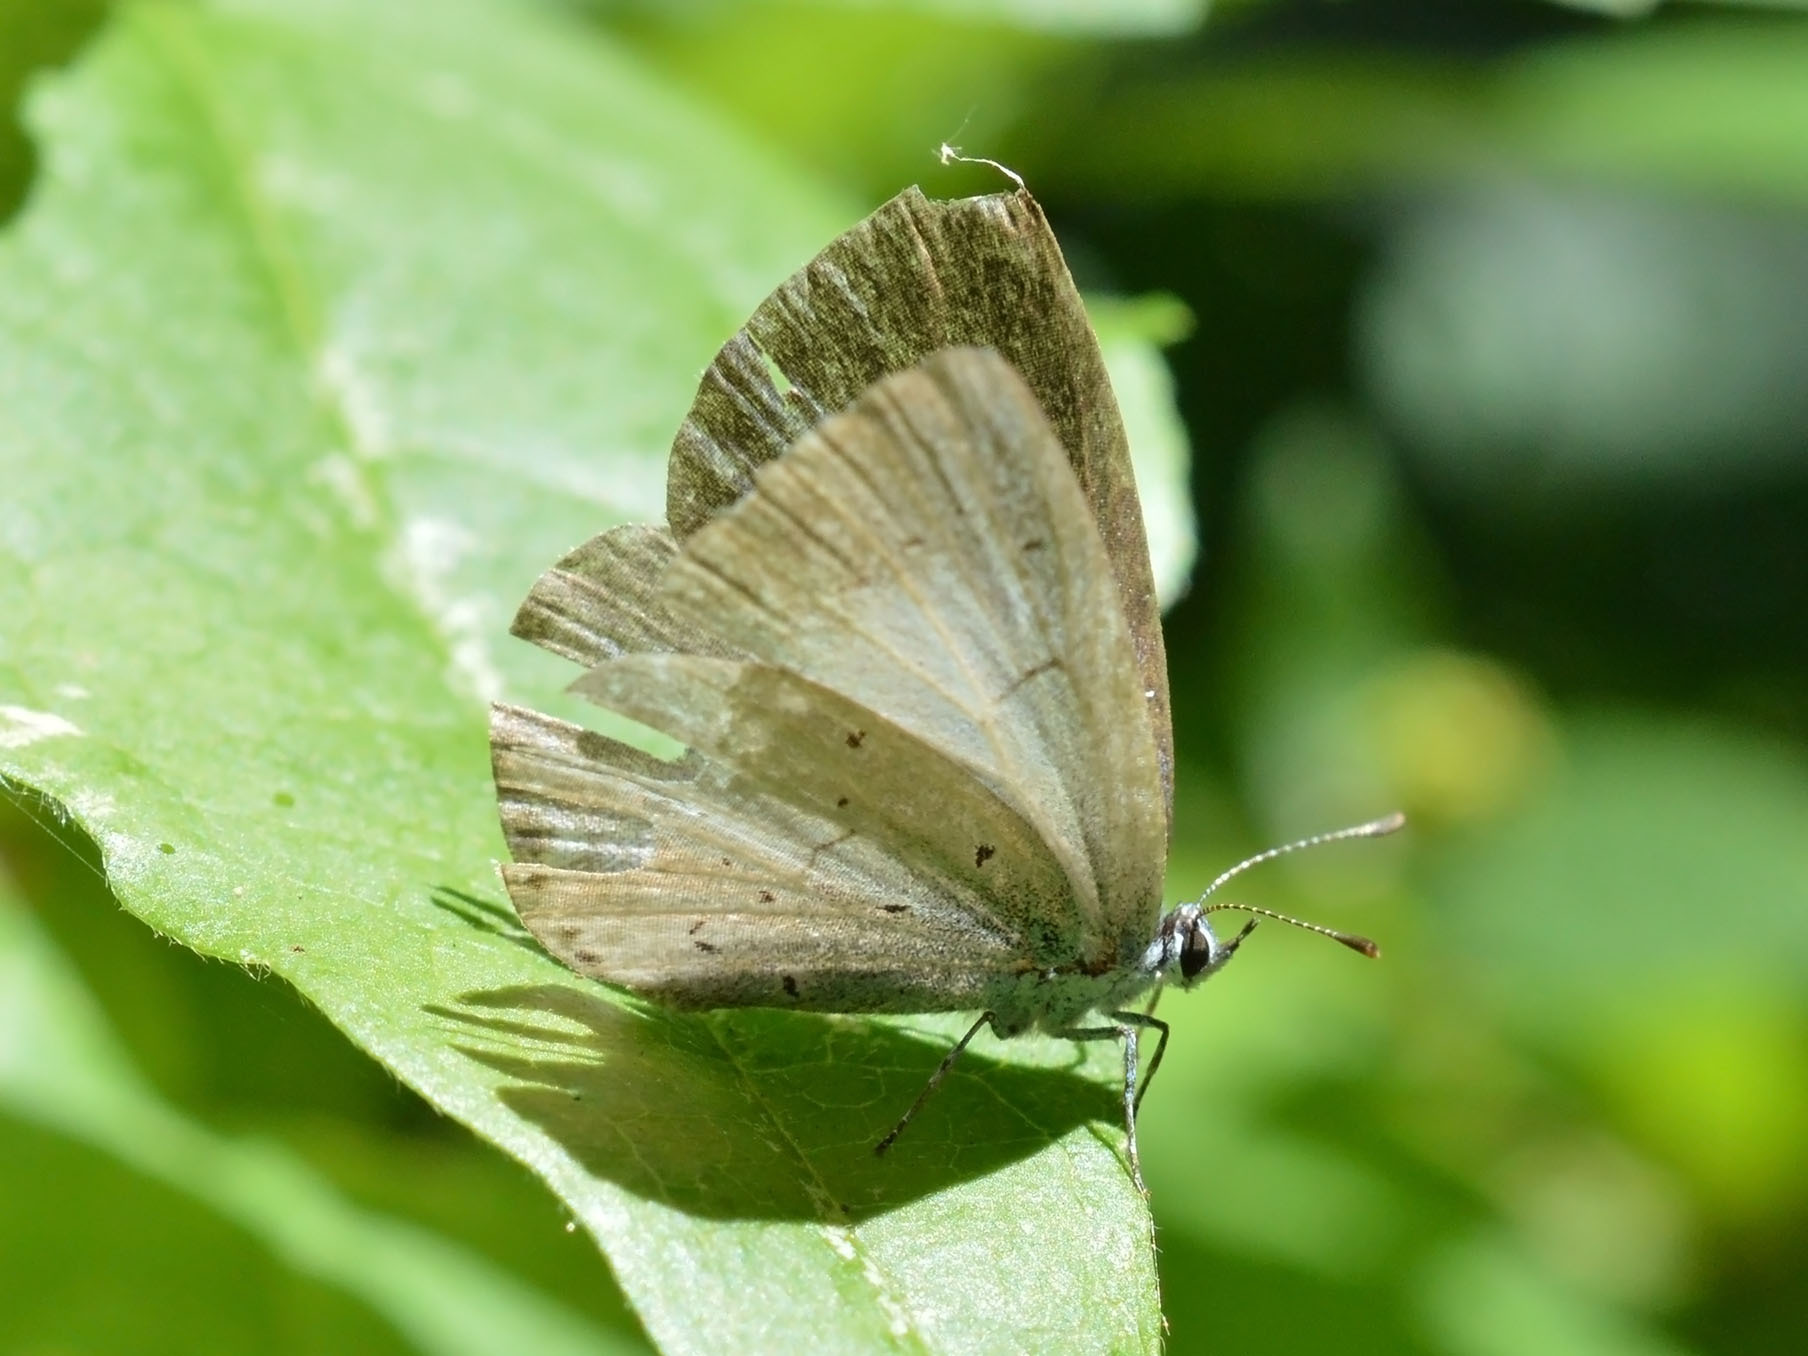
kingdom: Animalia
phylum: Arthropoda
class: Insecta
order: Lepidoptera
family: Lycaenidae
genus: Celastrina
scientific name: Celastrina argiolus
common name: Holly blue
